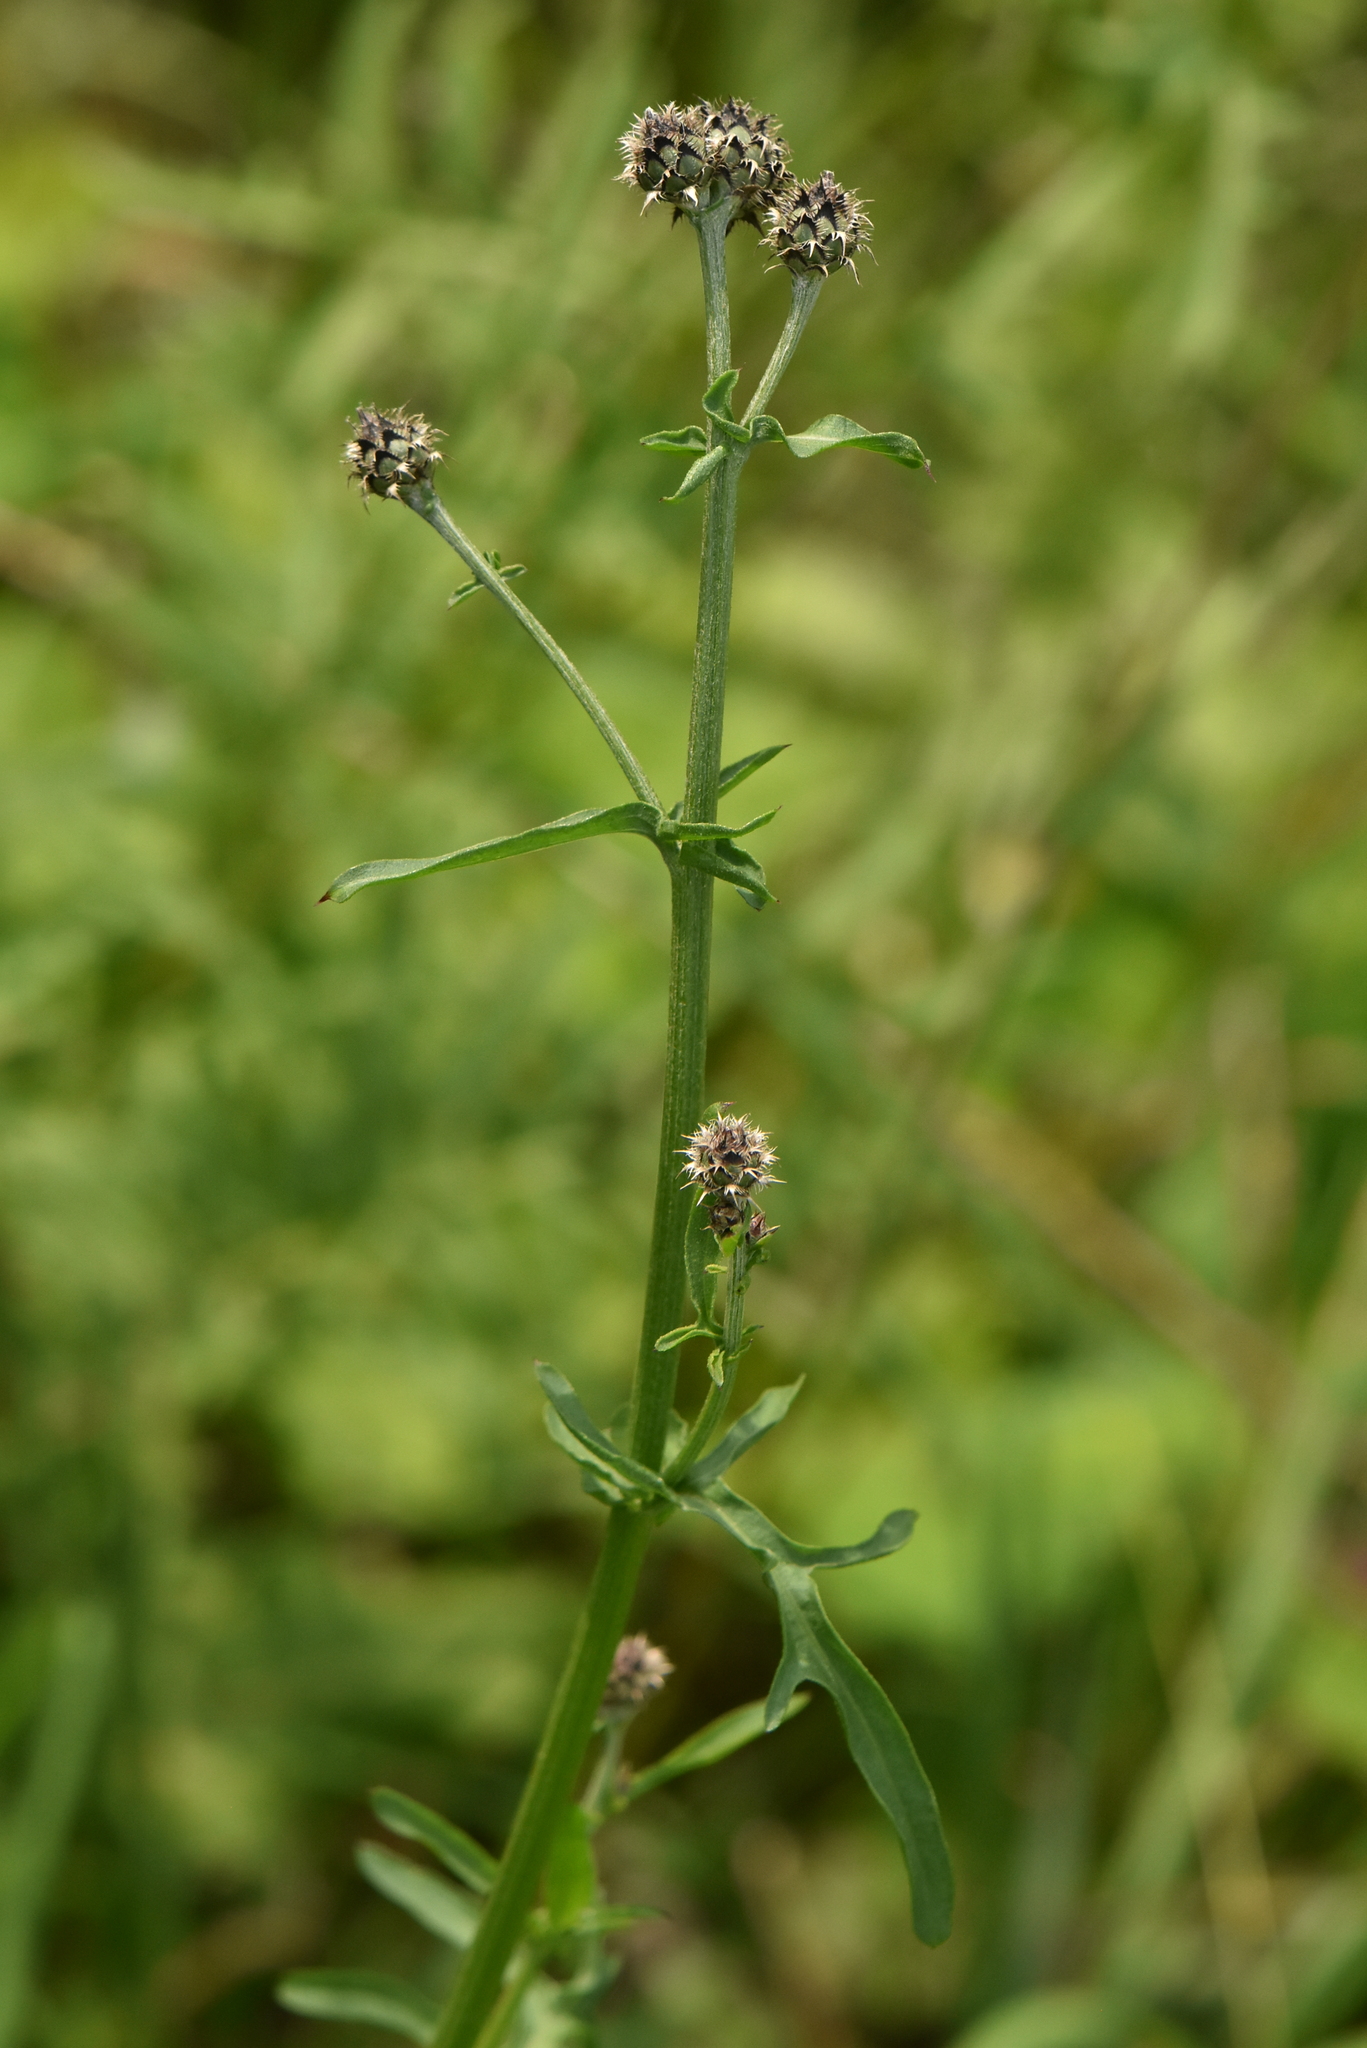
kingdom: Plantae
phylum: Tracheophyta
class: Magnoliopsida
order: Asterales
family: Asteraceae
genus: Centaurea
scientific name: Centaurea scabiosa
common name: Greater knapweed
